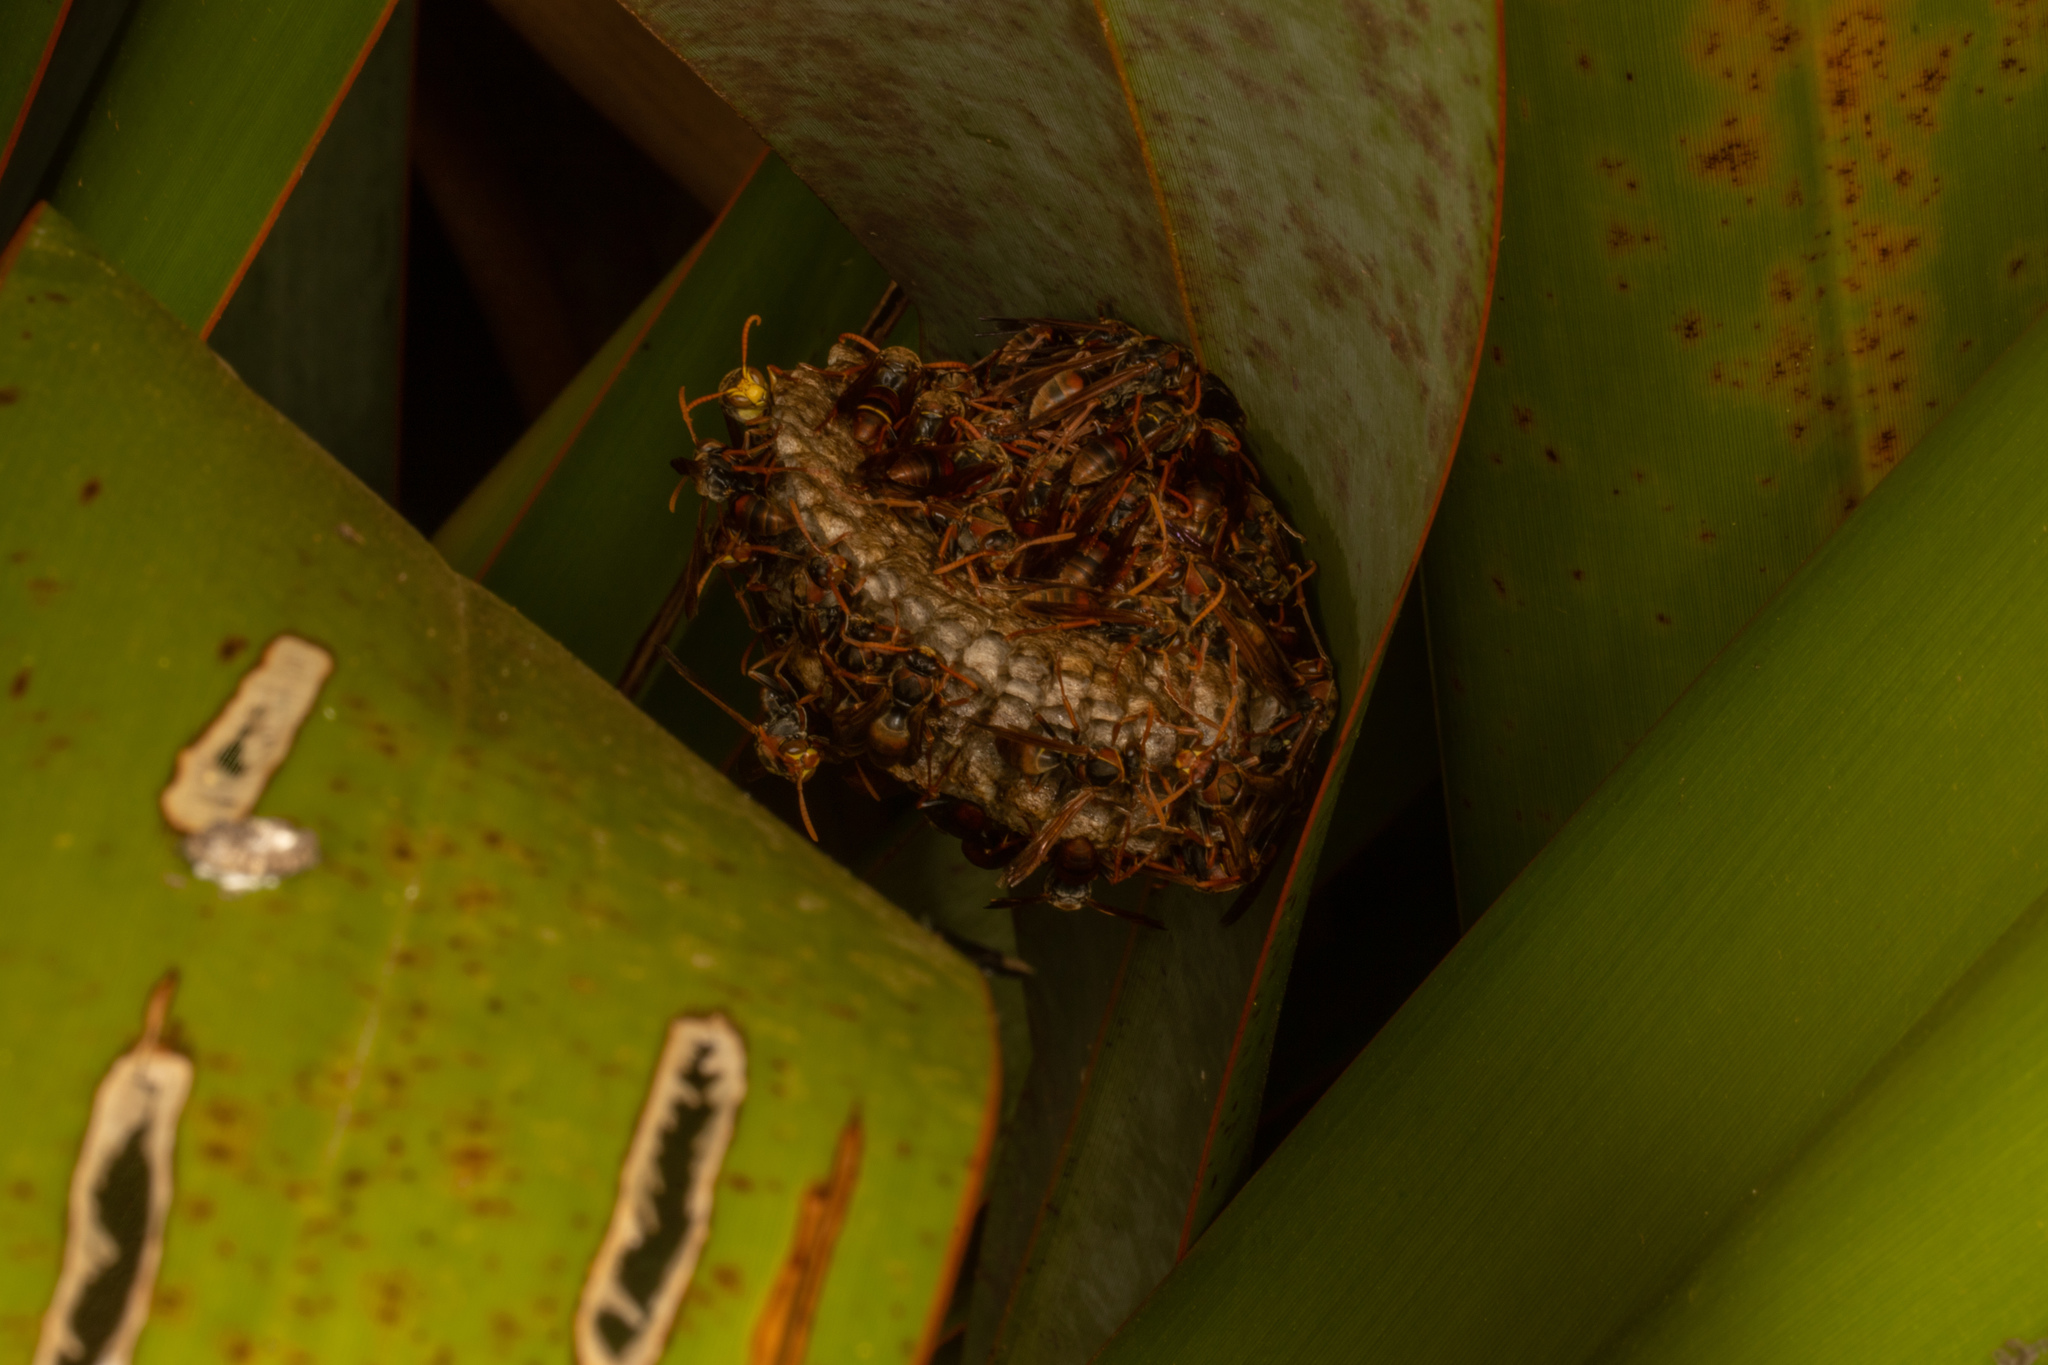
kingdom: Animalia
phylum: Arthropoda
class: Insecta
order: Hymenoptera
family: Eumenidae
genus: Polistes
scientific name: Polistes humilis
